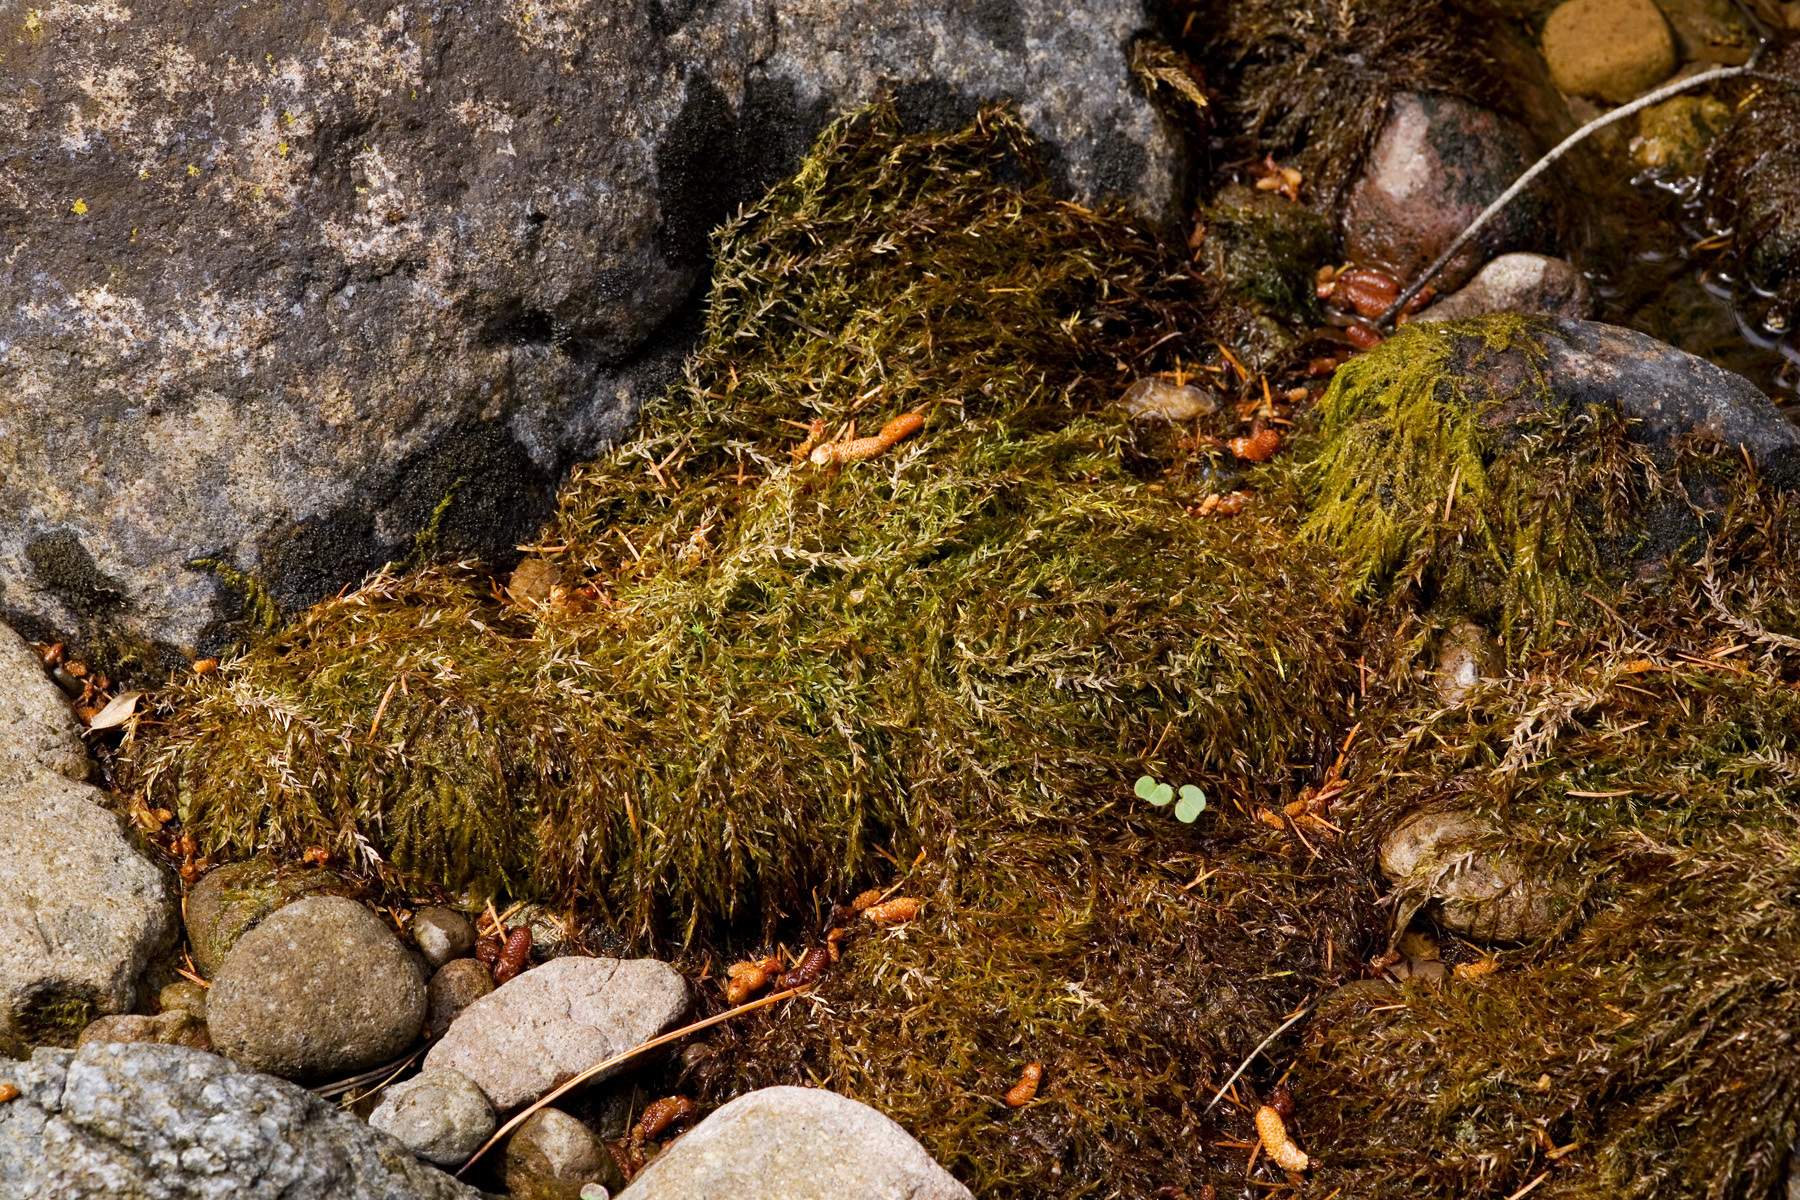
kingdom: Plantae
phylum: Bryophyta
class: Bryopsida
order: Hypnales
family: Fontinalaceae
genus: Fontinalis
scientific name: Fontinalis antipyretica
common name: Greater water-moss
